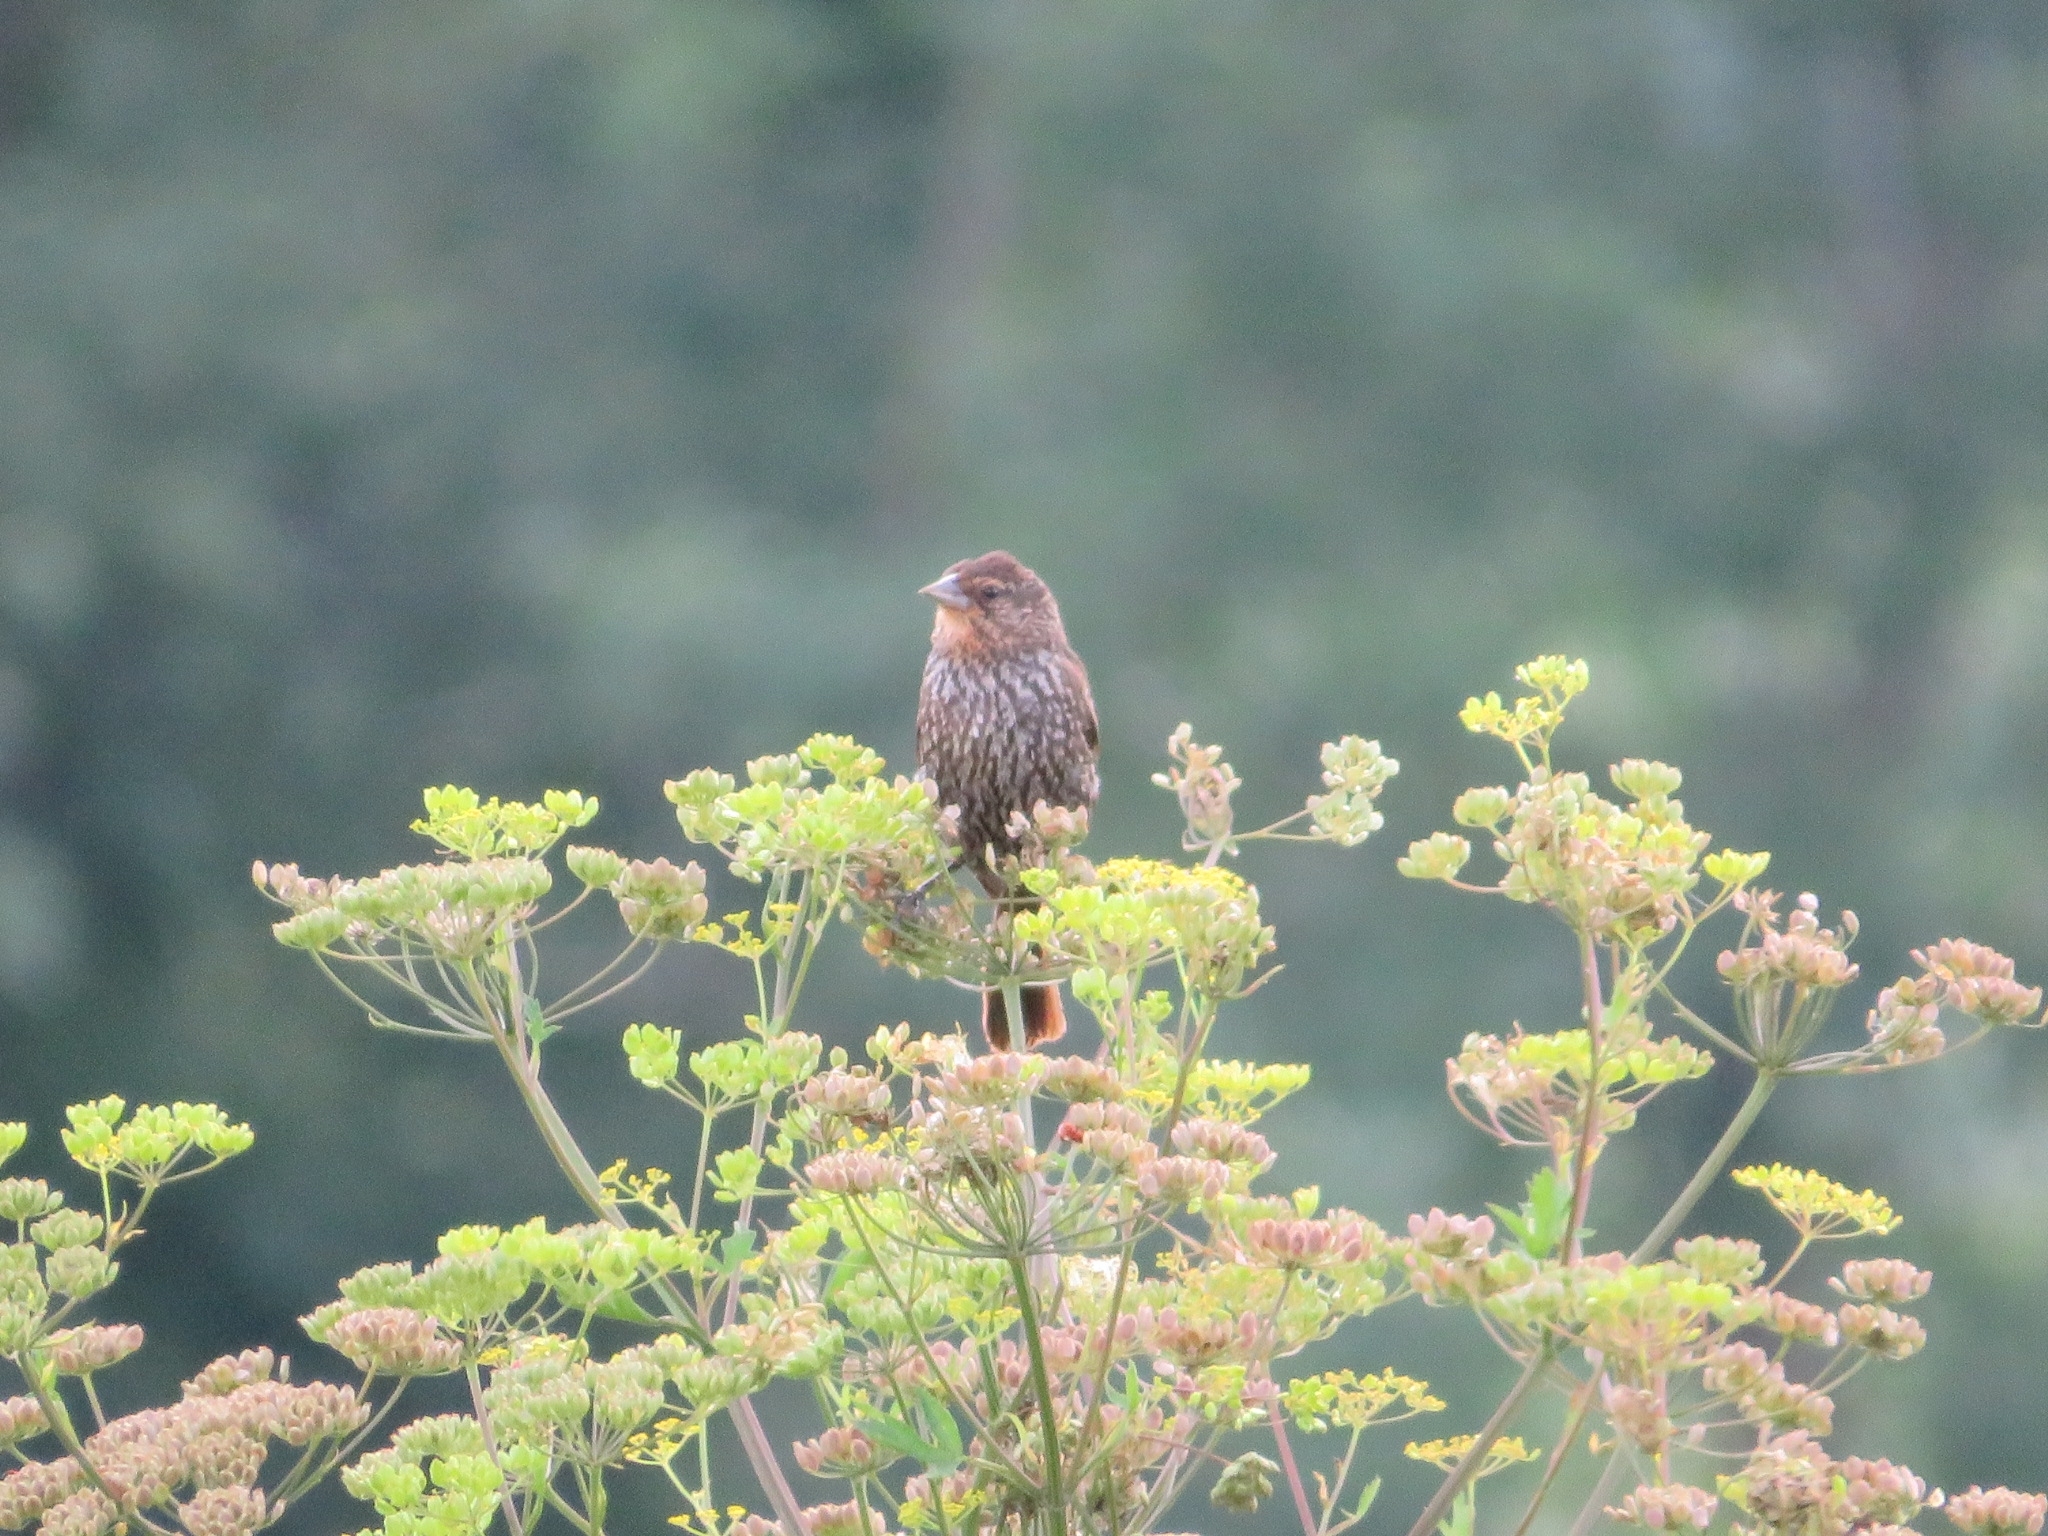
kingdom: Animalia
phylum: Chordata
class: Aves
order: Passeriformes
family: Icteridae
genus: Agelaius
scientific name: Agelaius phoeniceus
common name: Red-winged blackbird
